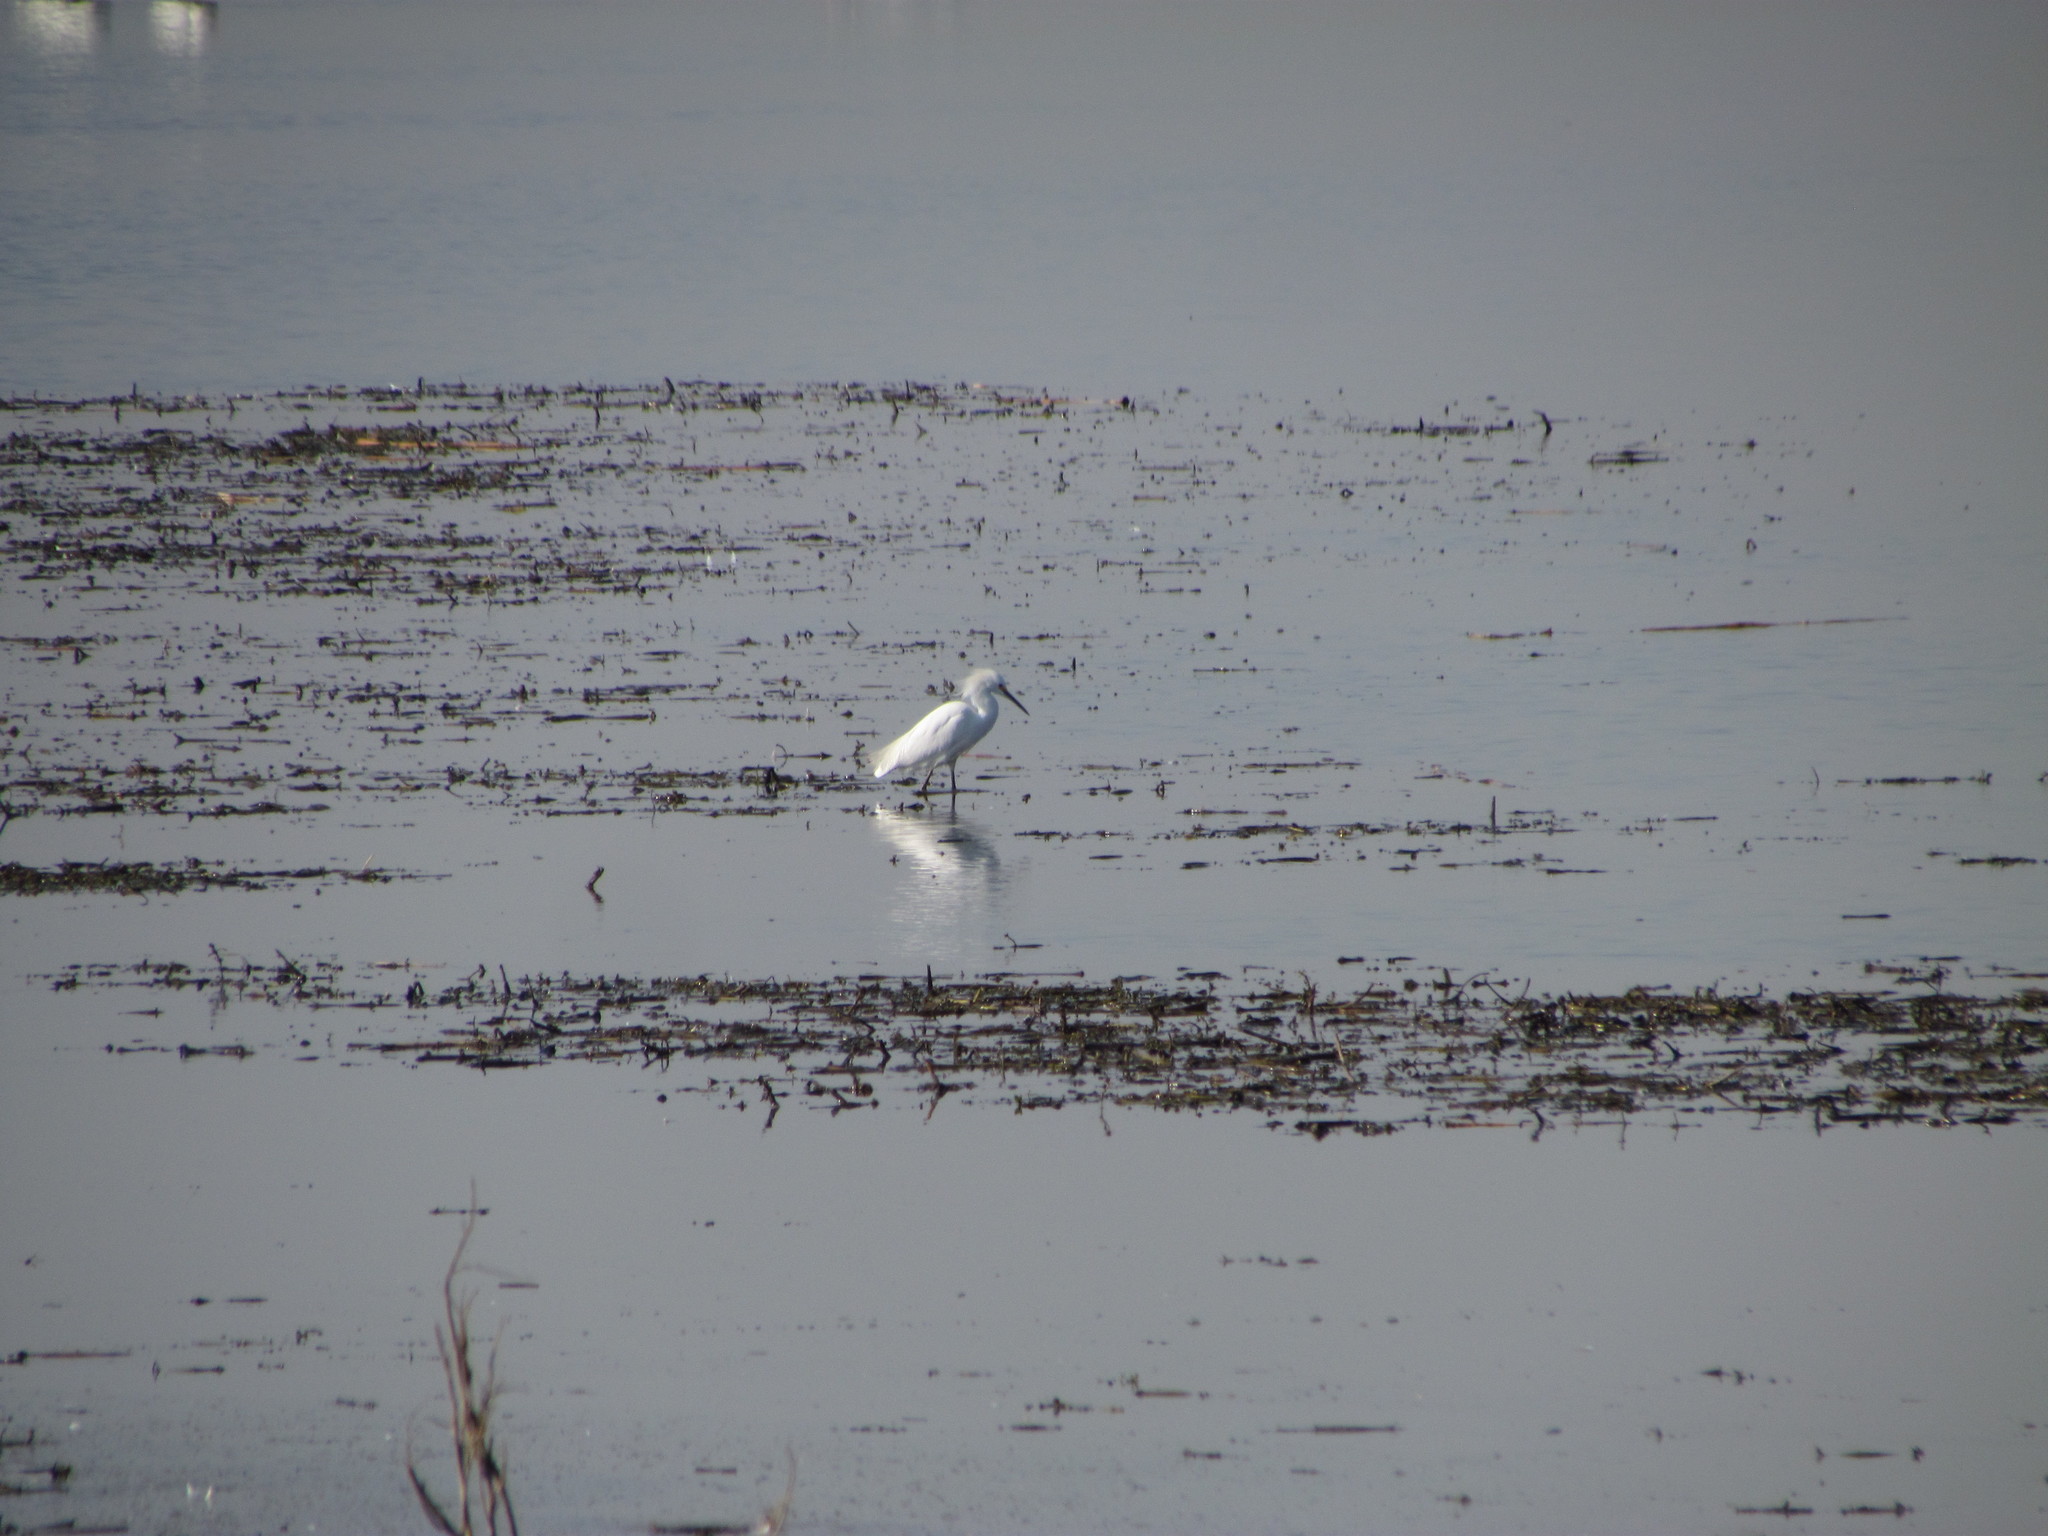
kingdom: Animalia
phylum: Chordata
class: Aves
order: Pelecaniformes
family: Ardeidae
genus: Egretta
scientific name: Egretta thula
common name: Snowy egret
